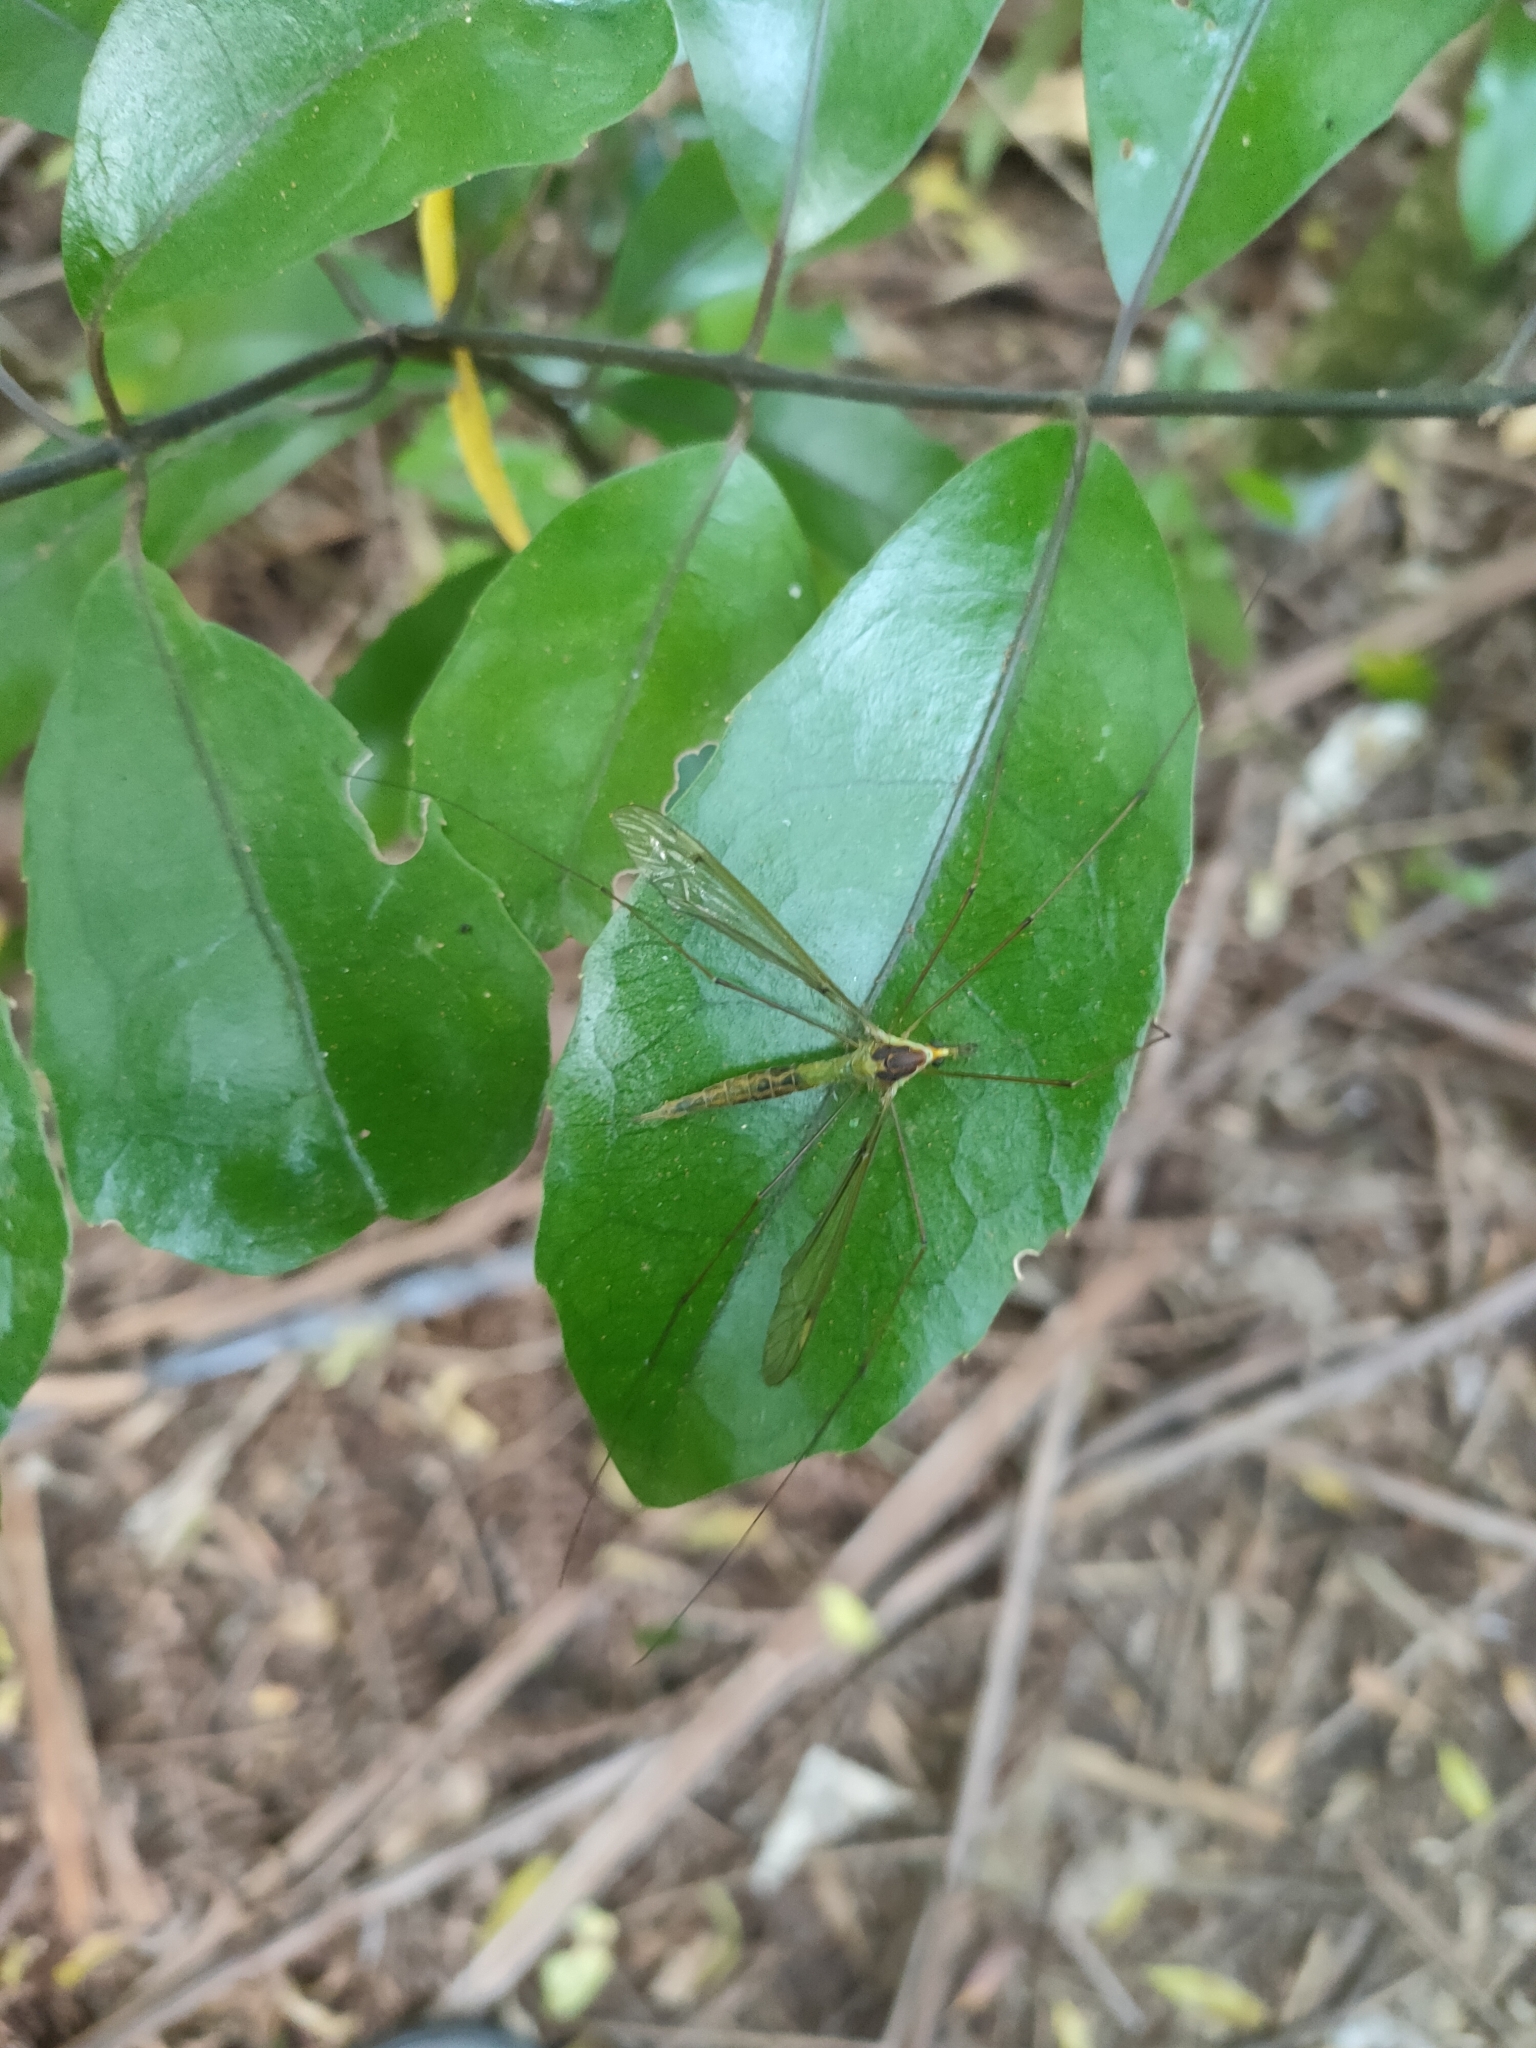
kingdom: Animalia
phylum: Arthropoda
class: Insecta
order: Diptera
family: Tipulidae
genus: Leptotarsus
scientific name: Leptotarsus albistigma
